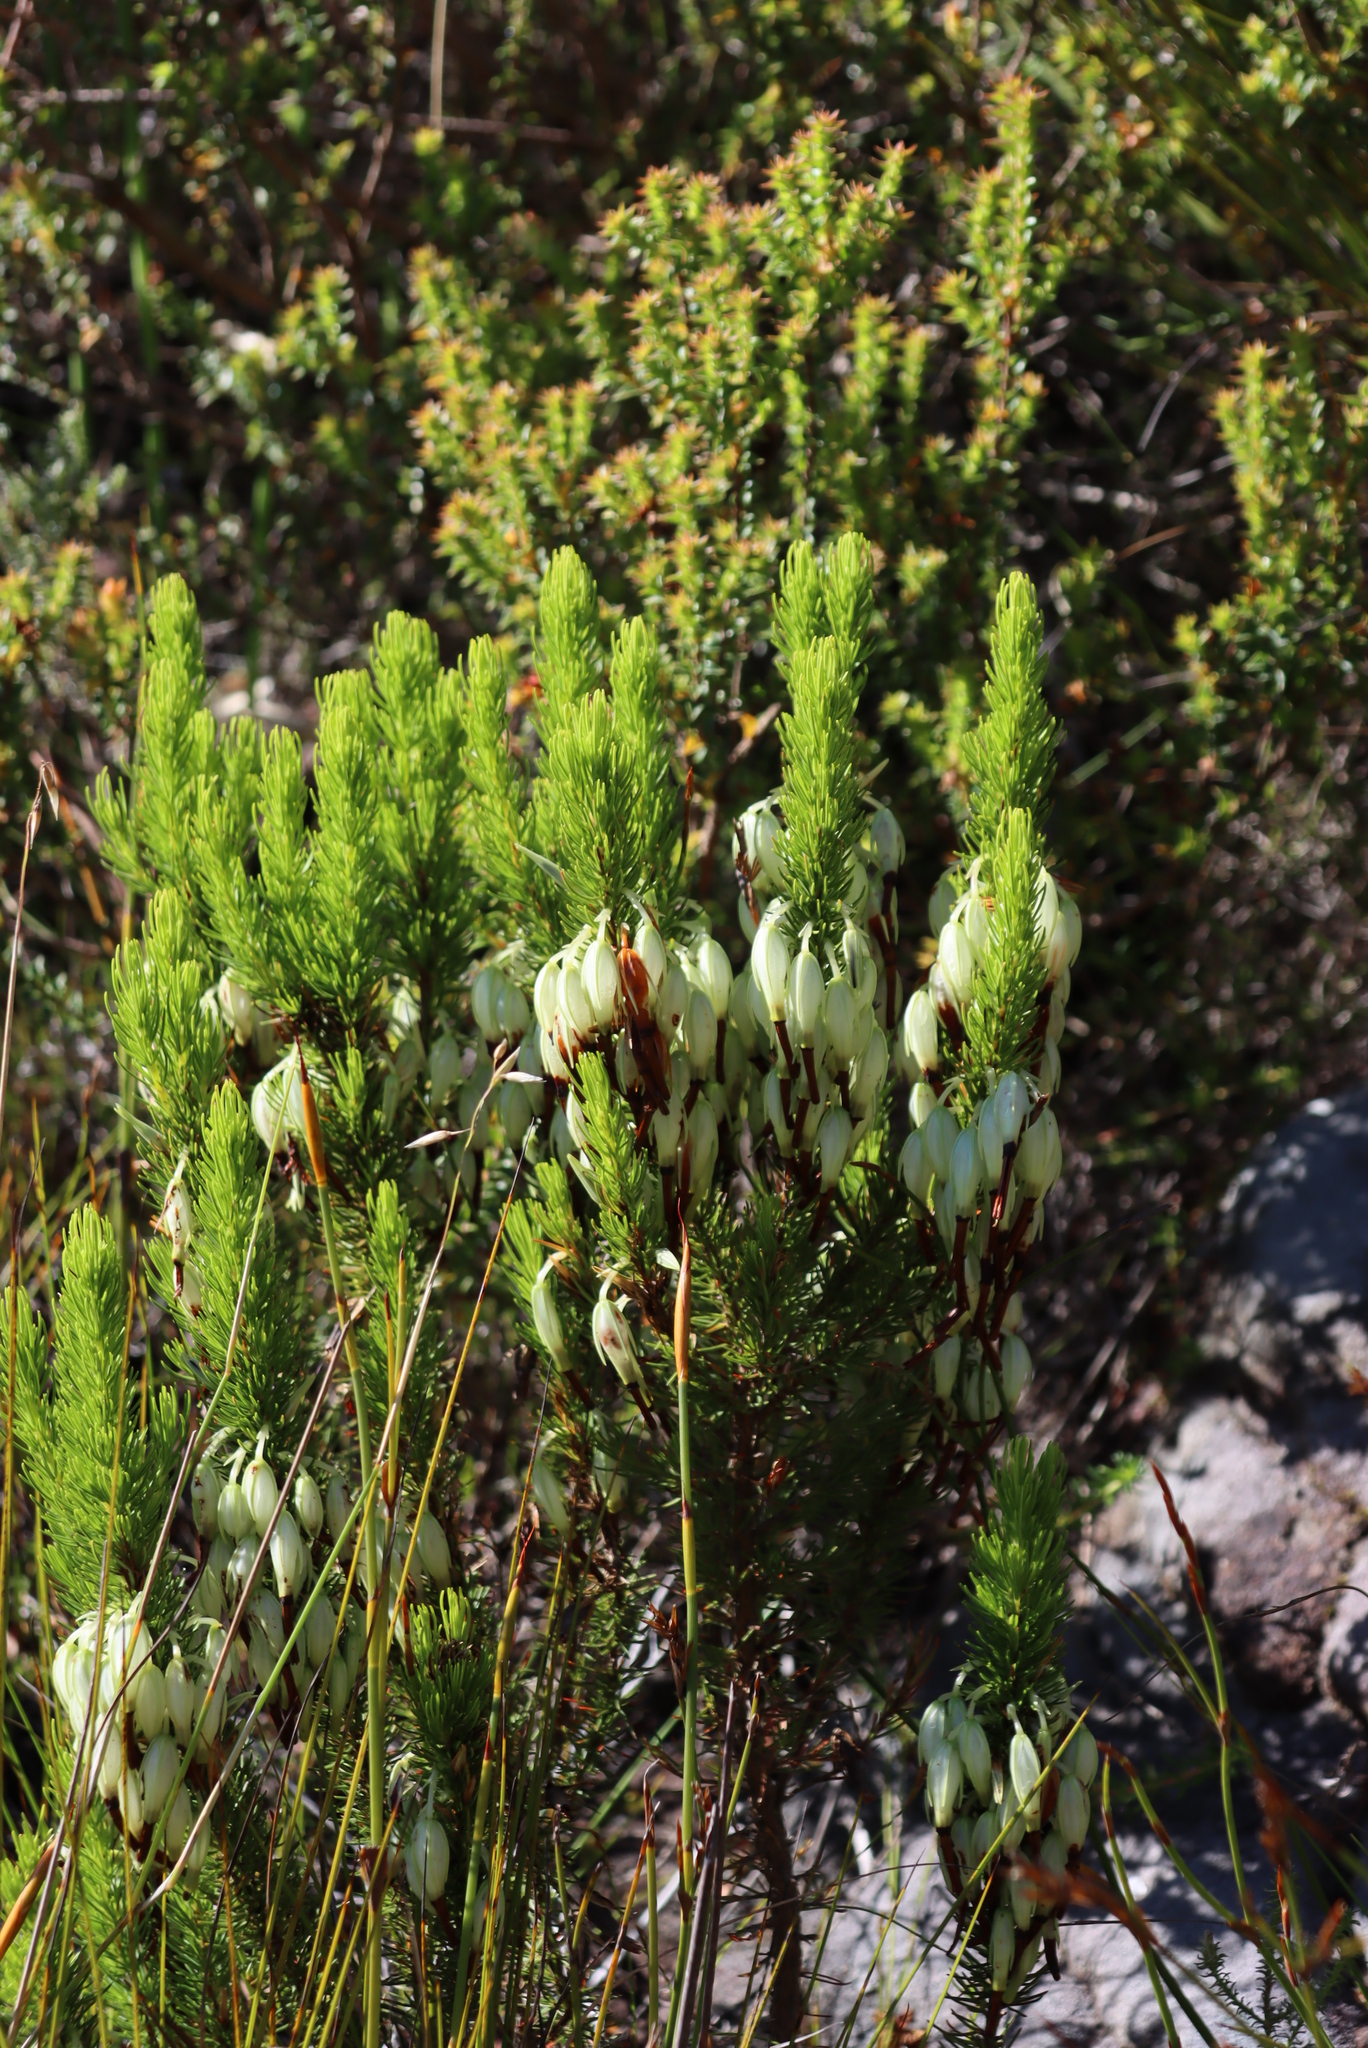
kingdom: Plantae
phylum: Tracheophyta
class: Magnoliopsida
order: Ericales
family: Ericaceae
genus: Erica
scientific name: Erica plukenetii
